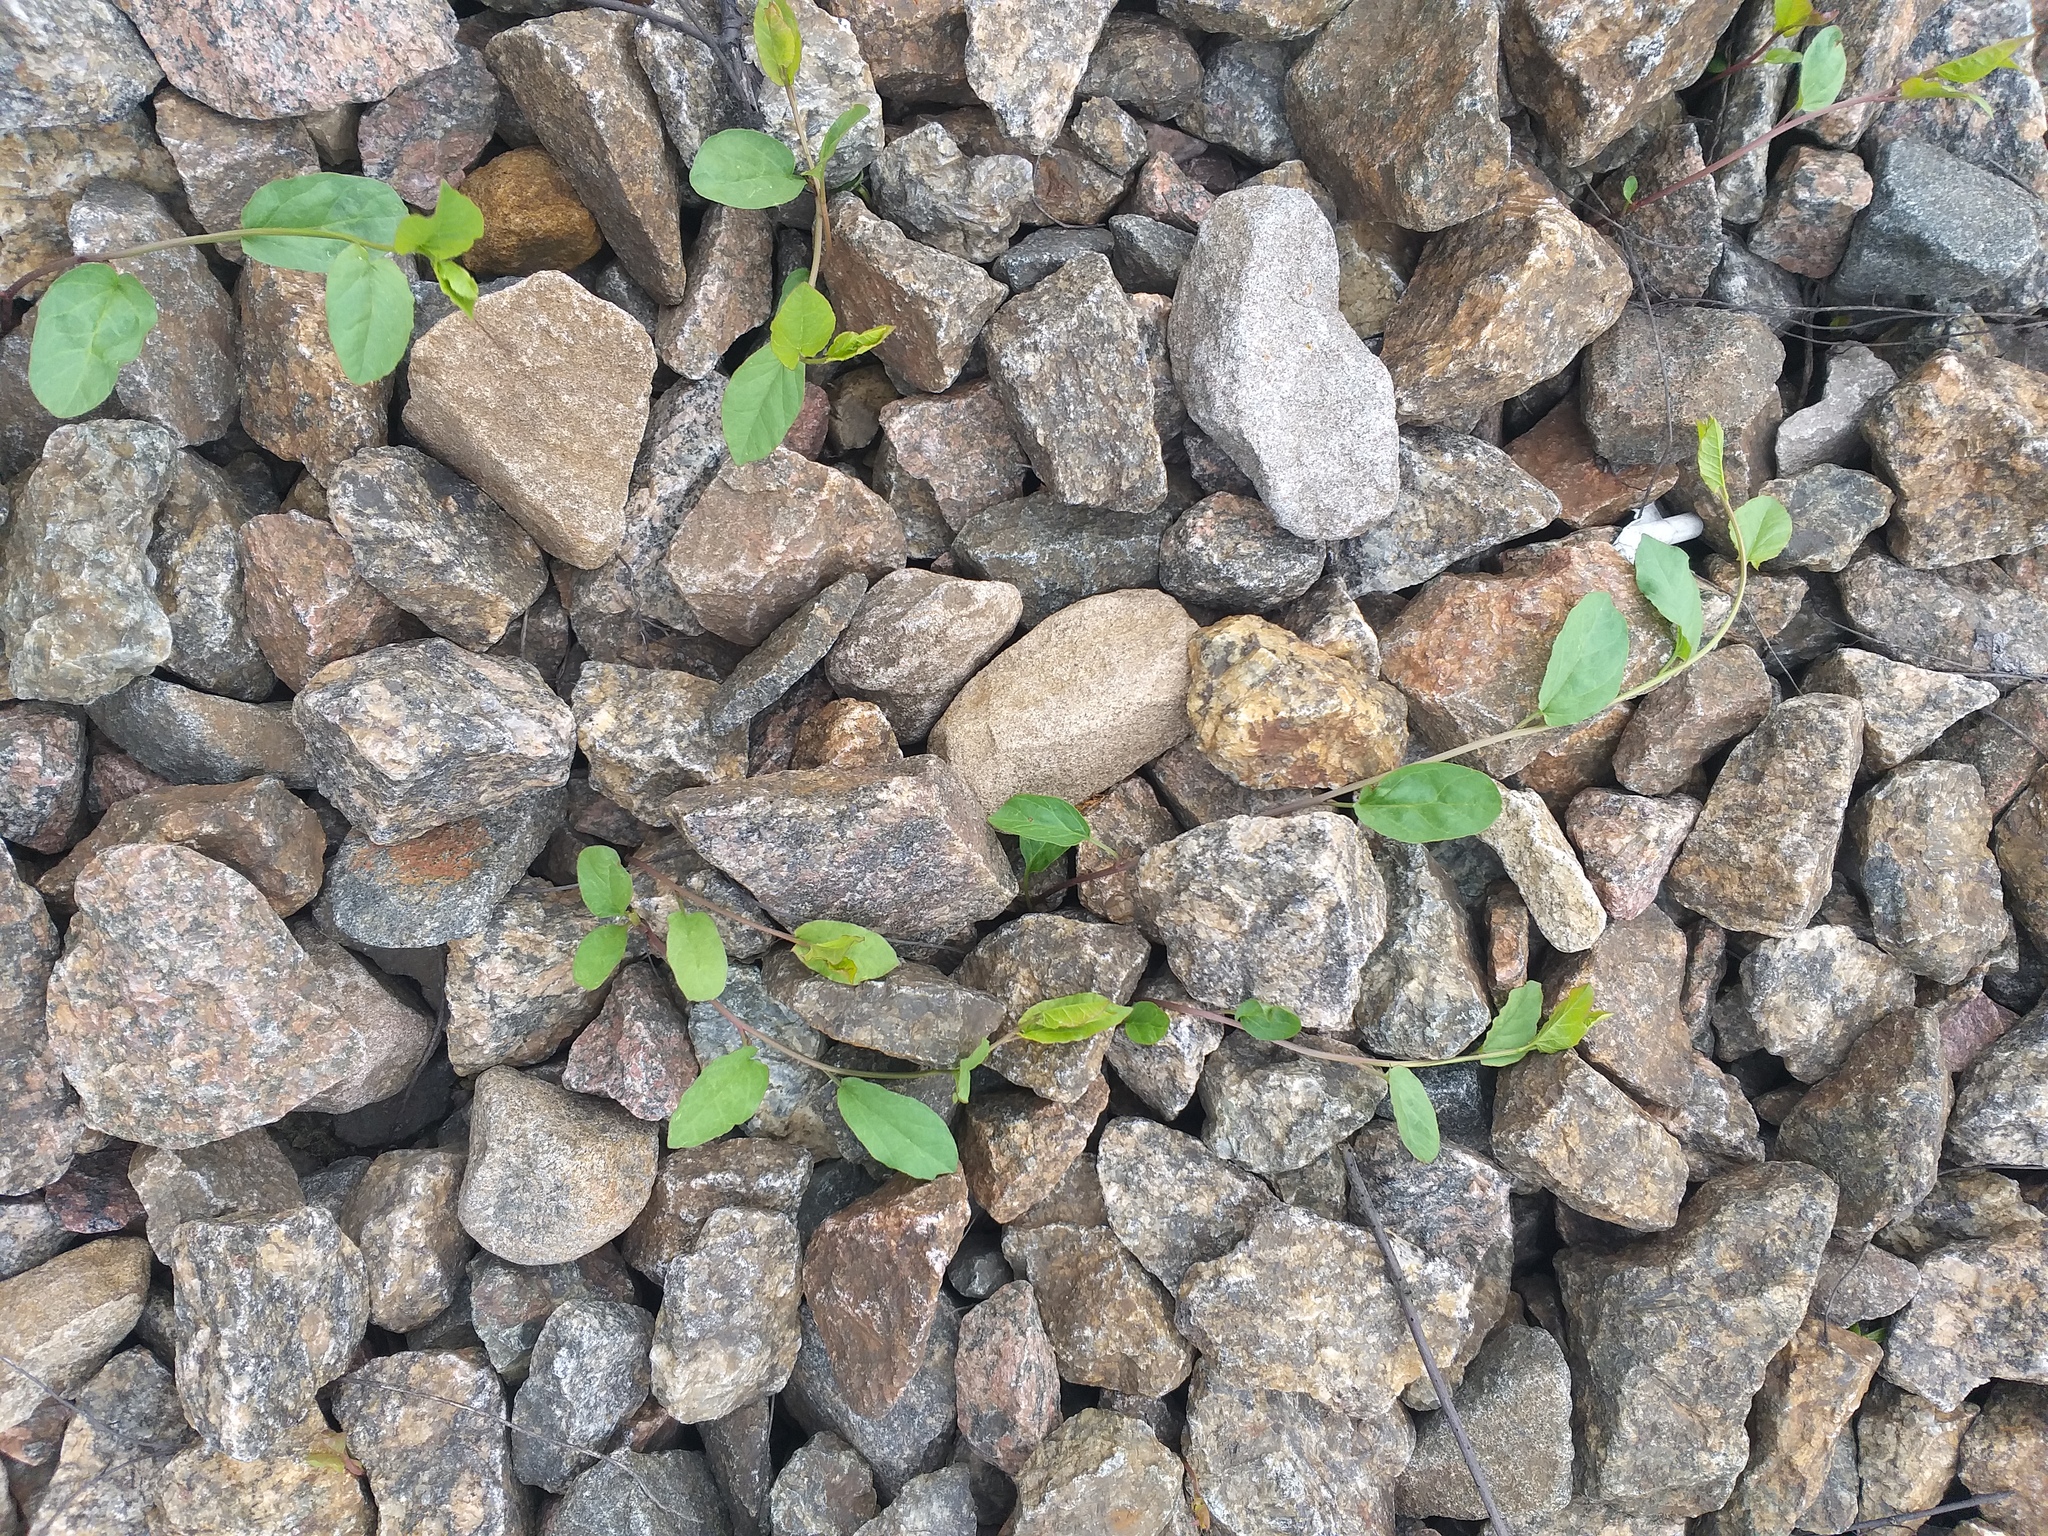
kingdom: Plantae
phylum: Tracheophyta
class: Magnoliopsida
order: Solanales
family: Convolvulaceae
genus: Convolvulus
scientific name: Convolvulus arvensis
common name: Field bindweed
